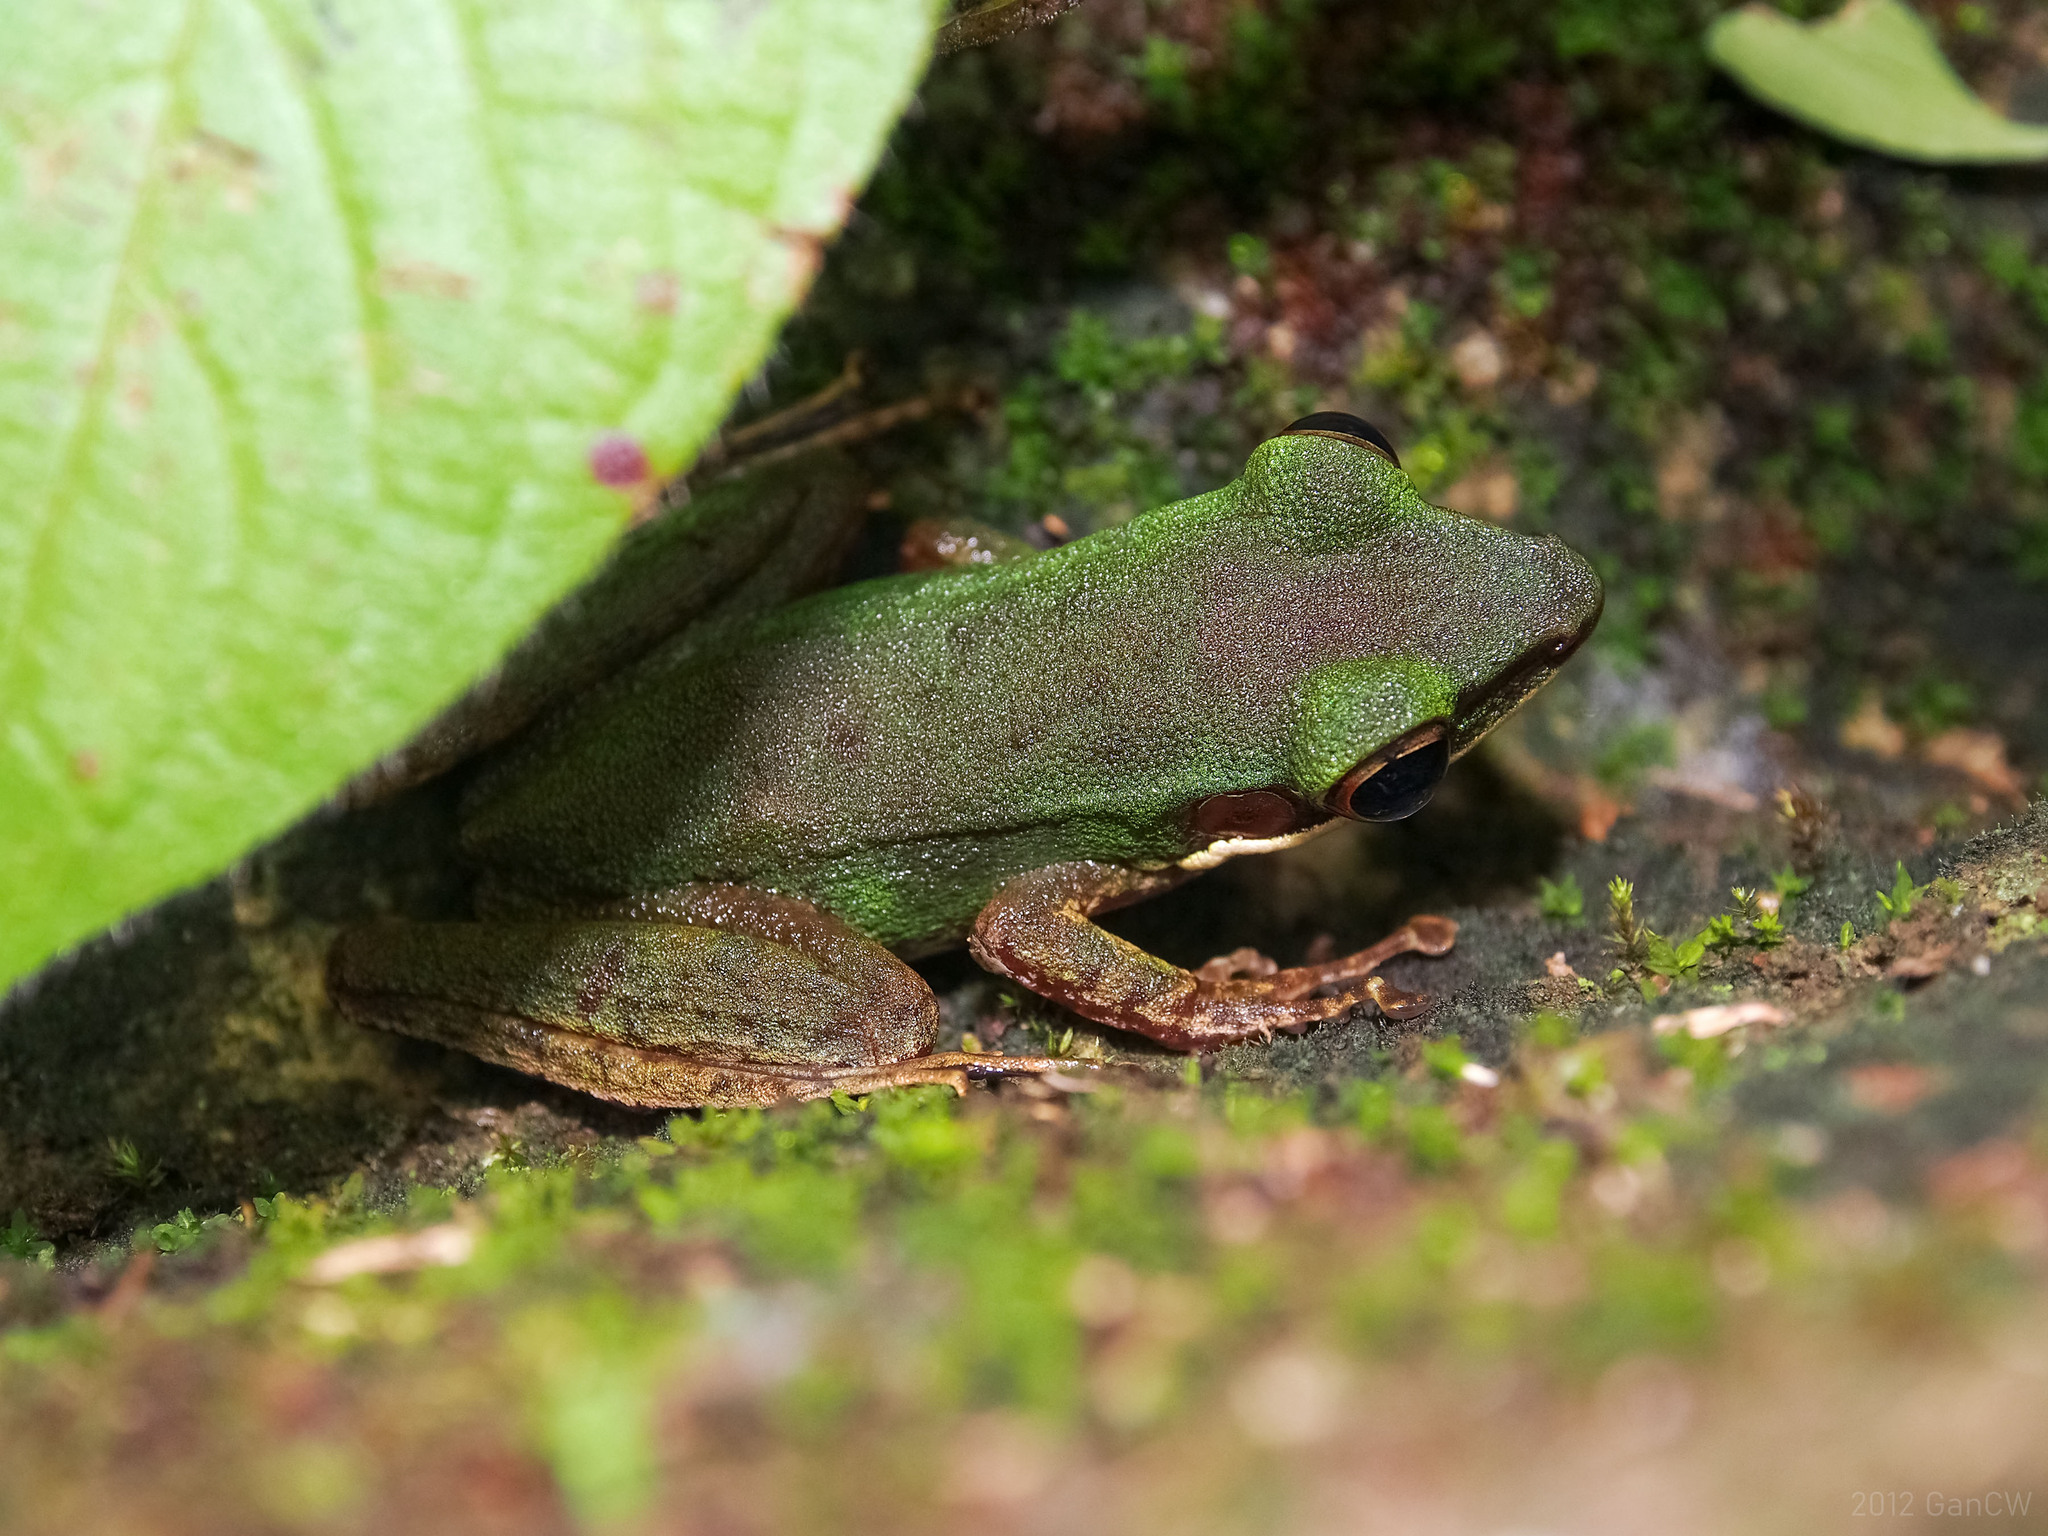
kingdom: Animalia
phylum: Chordata
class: Amphibia
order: Anura
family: Ranidae
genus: Chalcorana
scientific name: Chalcorana labialis
